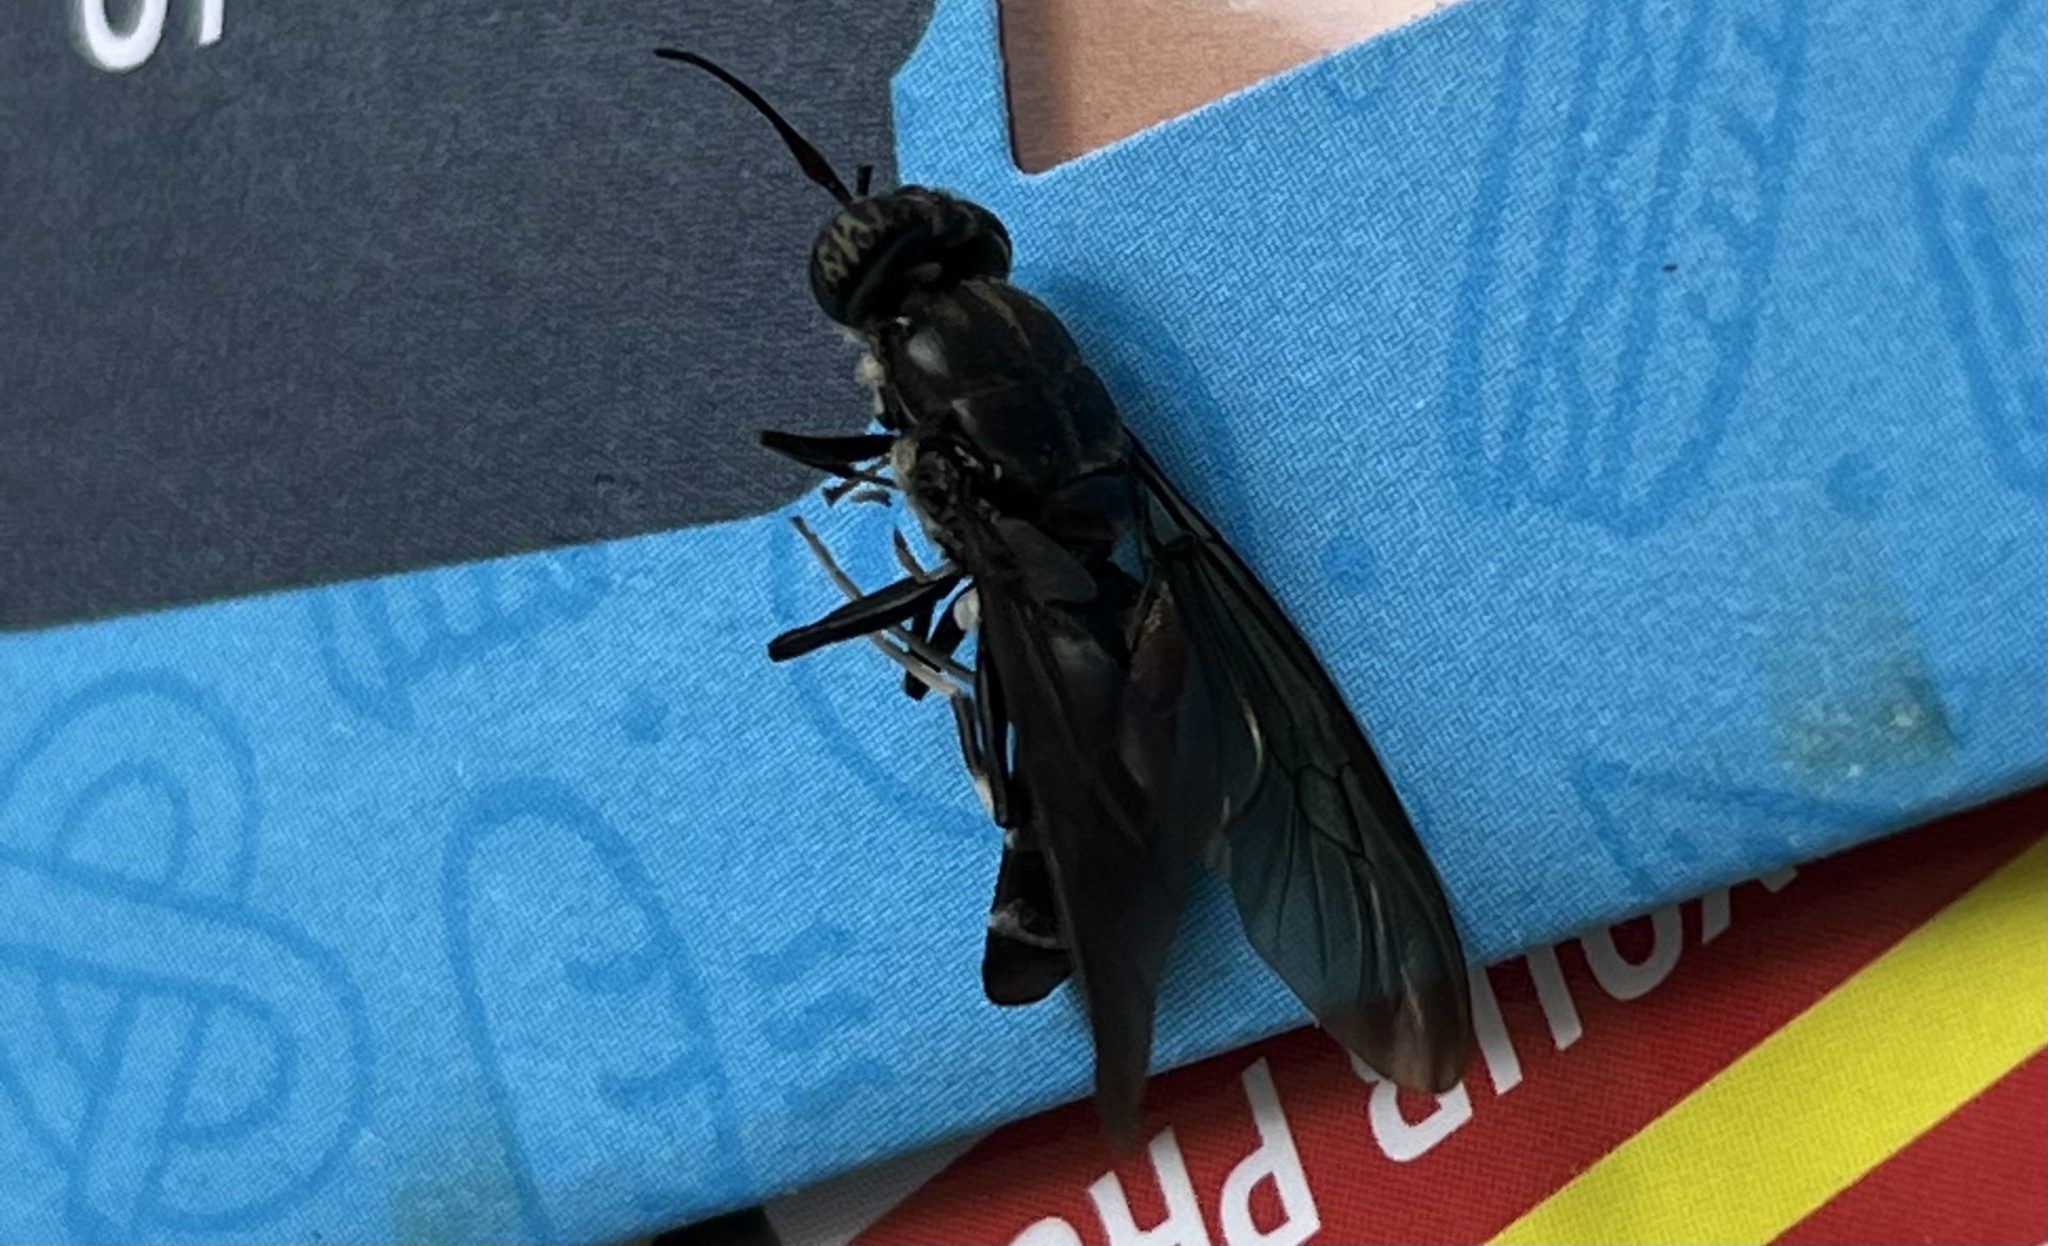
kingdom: Animalia
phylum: Arthropoda
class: Insecta
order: Diptera
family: Stratiomyidae
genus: Hermetia
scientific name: Hermetia illucens
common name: Black soldier fly
